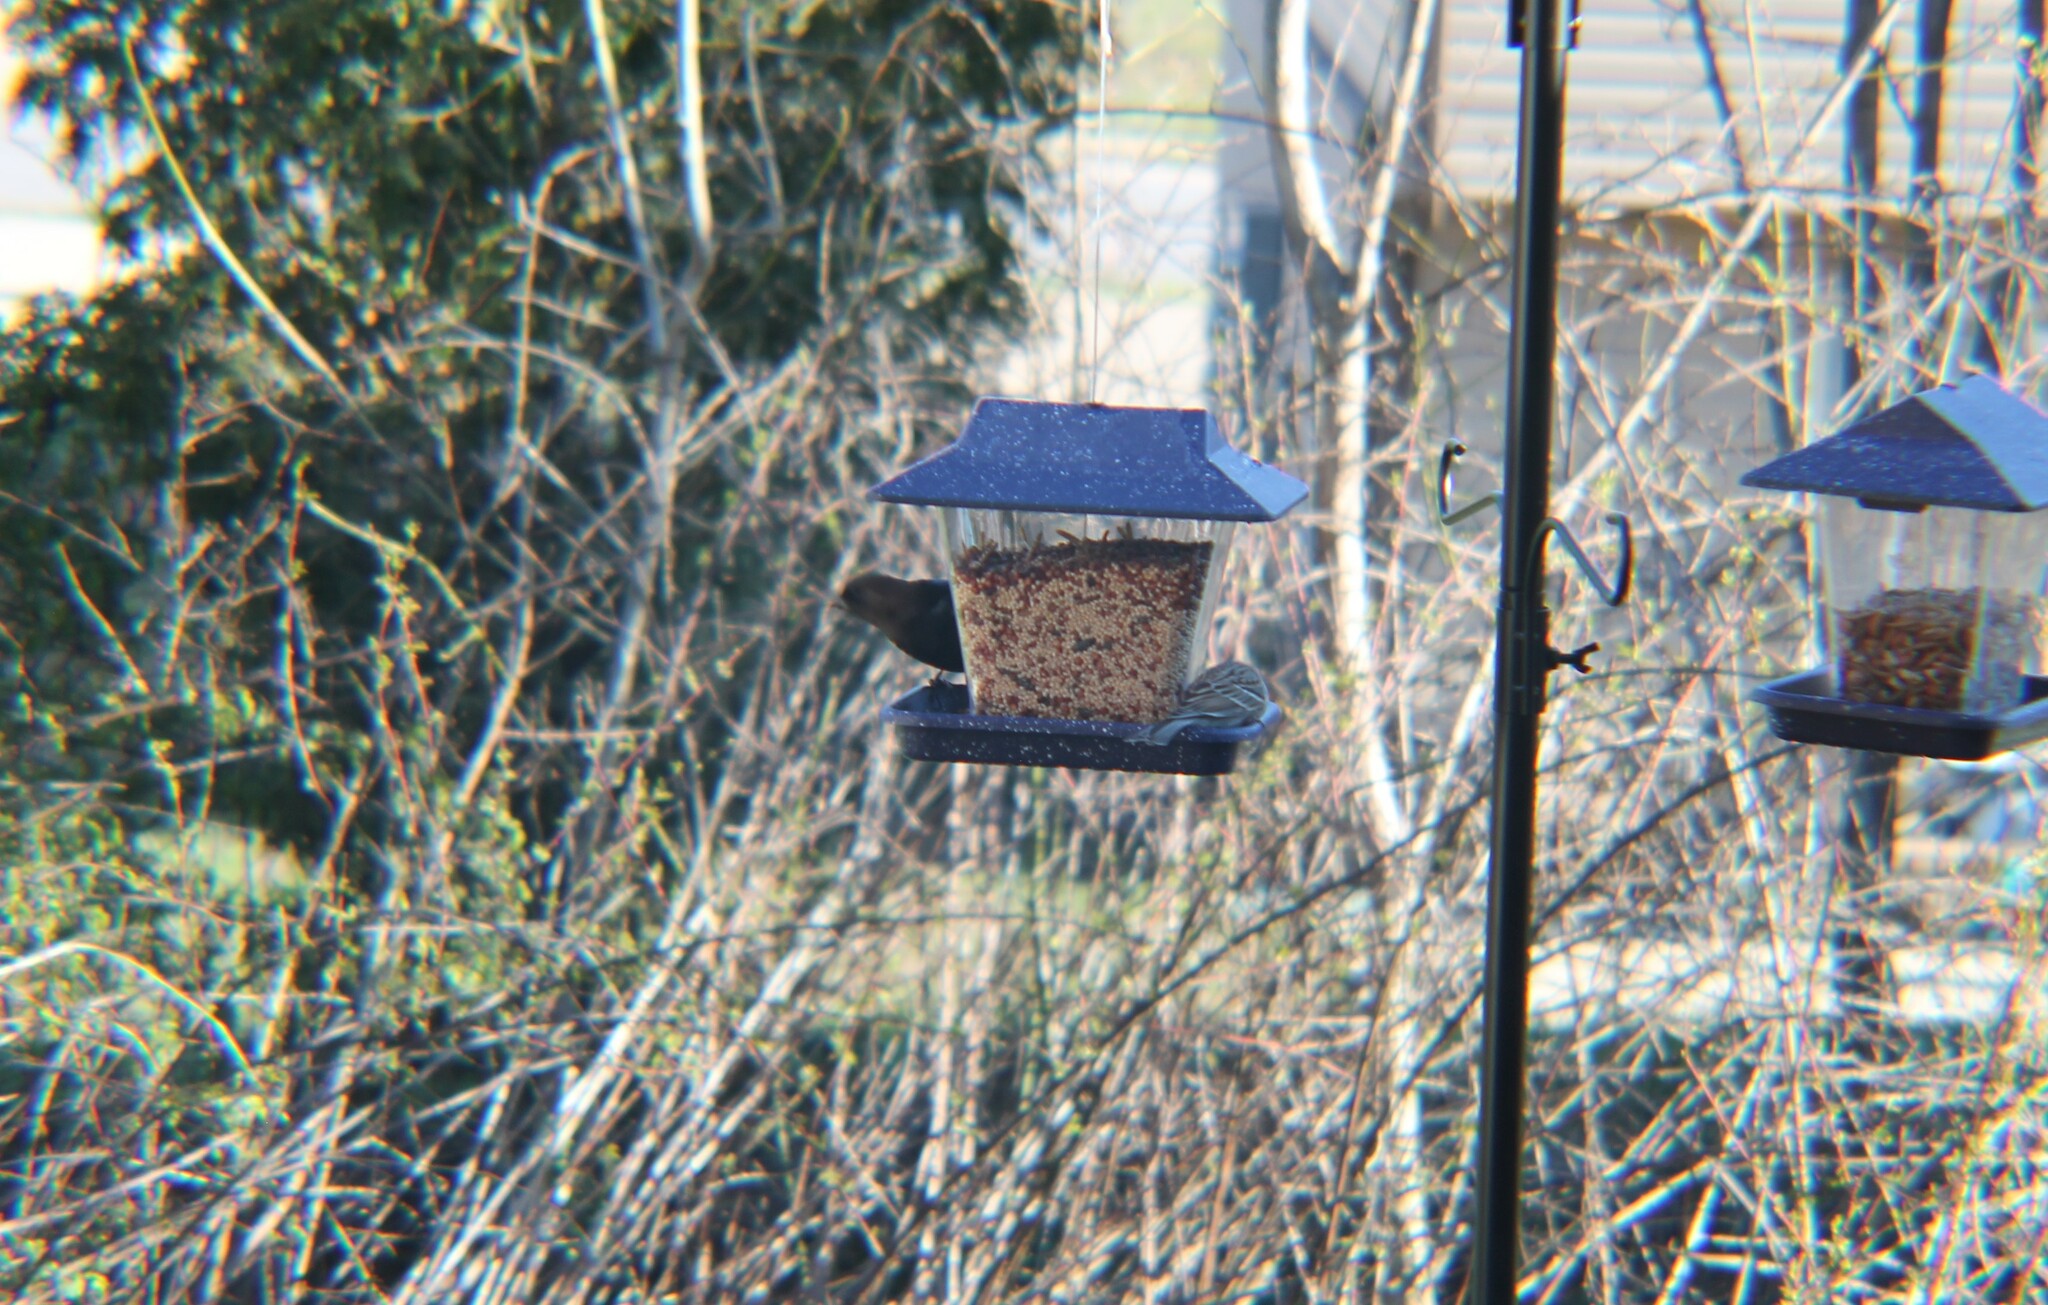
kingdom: Animalia
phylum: Chordata
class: Aves
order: Passeriformes
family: Icteridae
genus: Molothrus
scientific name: Molothrus ater
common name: Brown-headed cowbird
